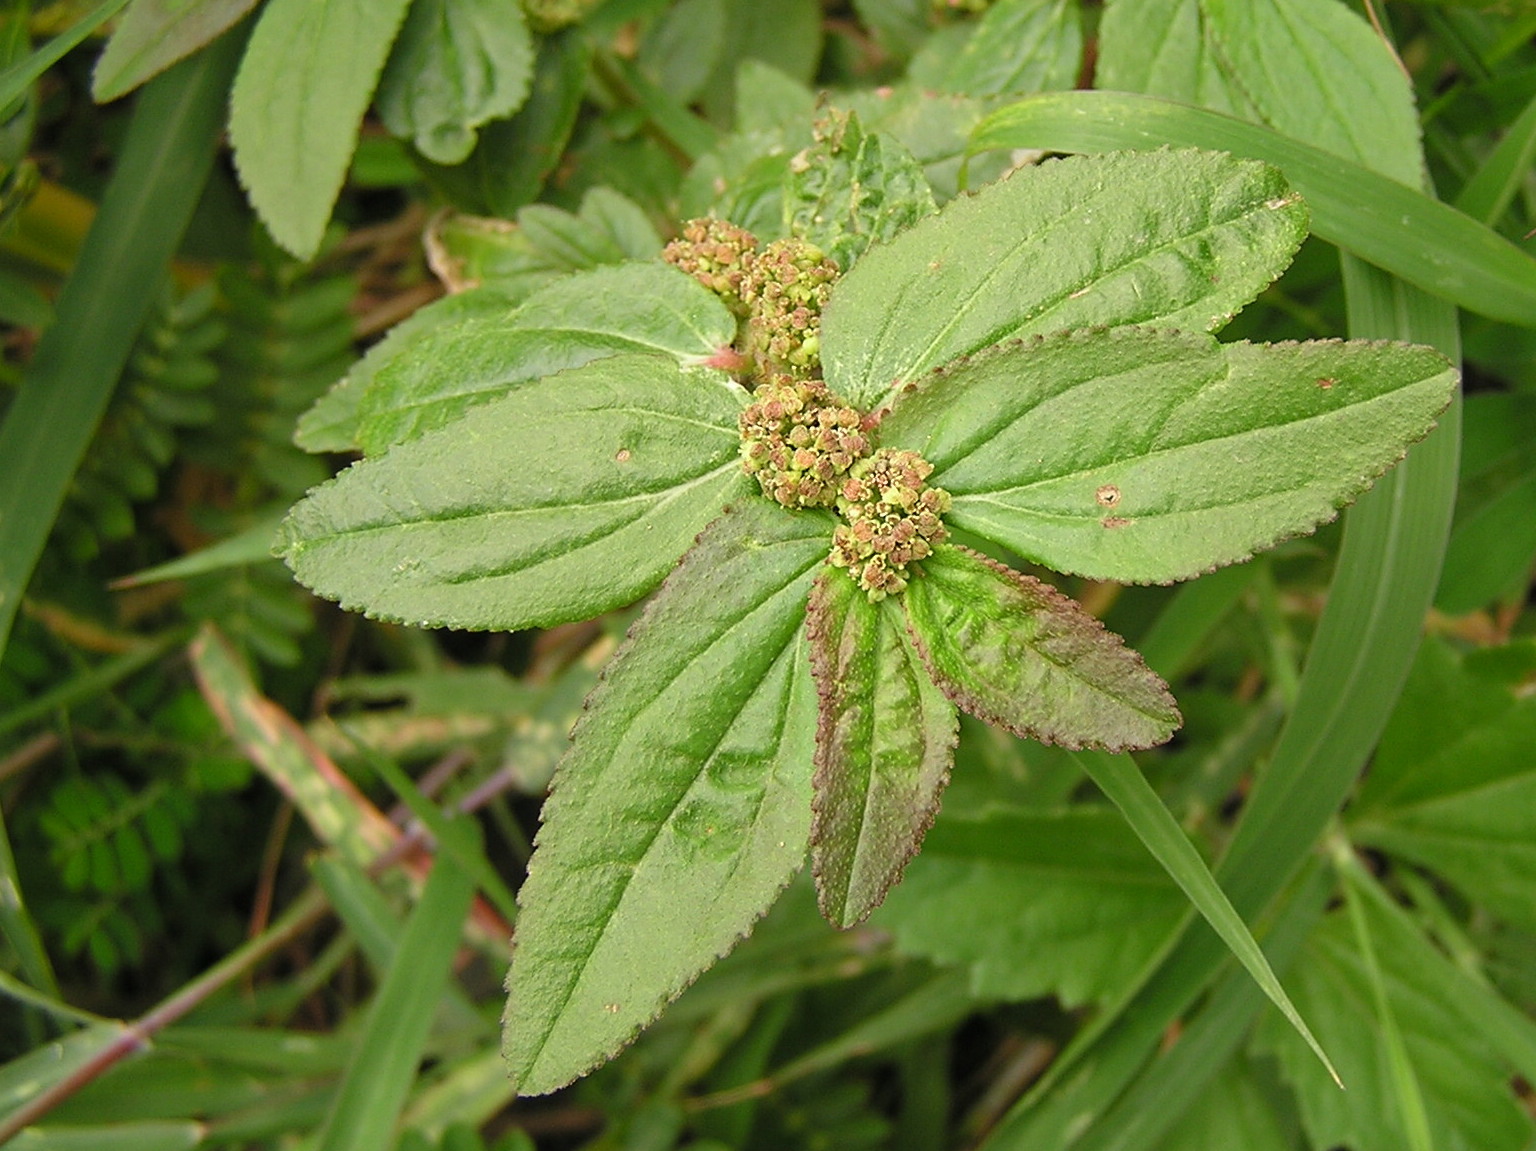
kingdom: Plantae
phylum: Tracheophyta
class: Magnoliopsida
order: Malpighiales
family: Euphorbiaceae
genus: Euphorbia
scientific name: Euphorbia hirta
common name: Pillpod sandmat
